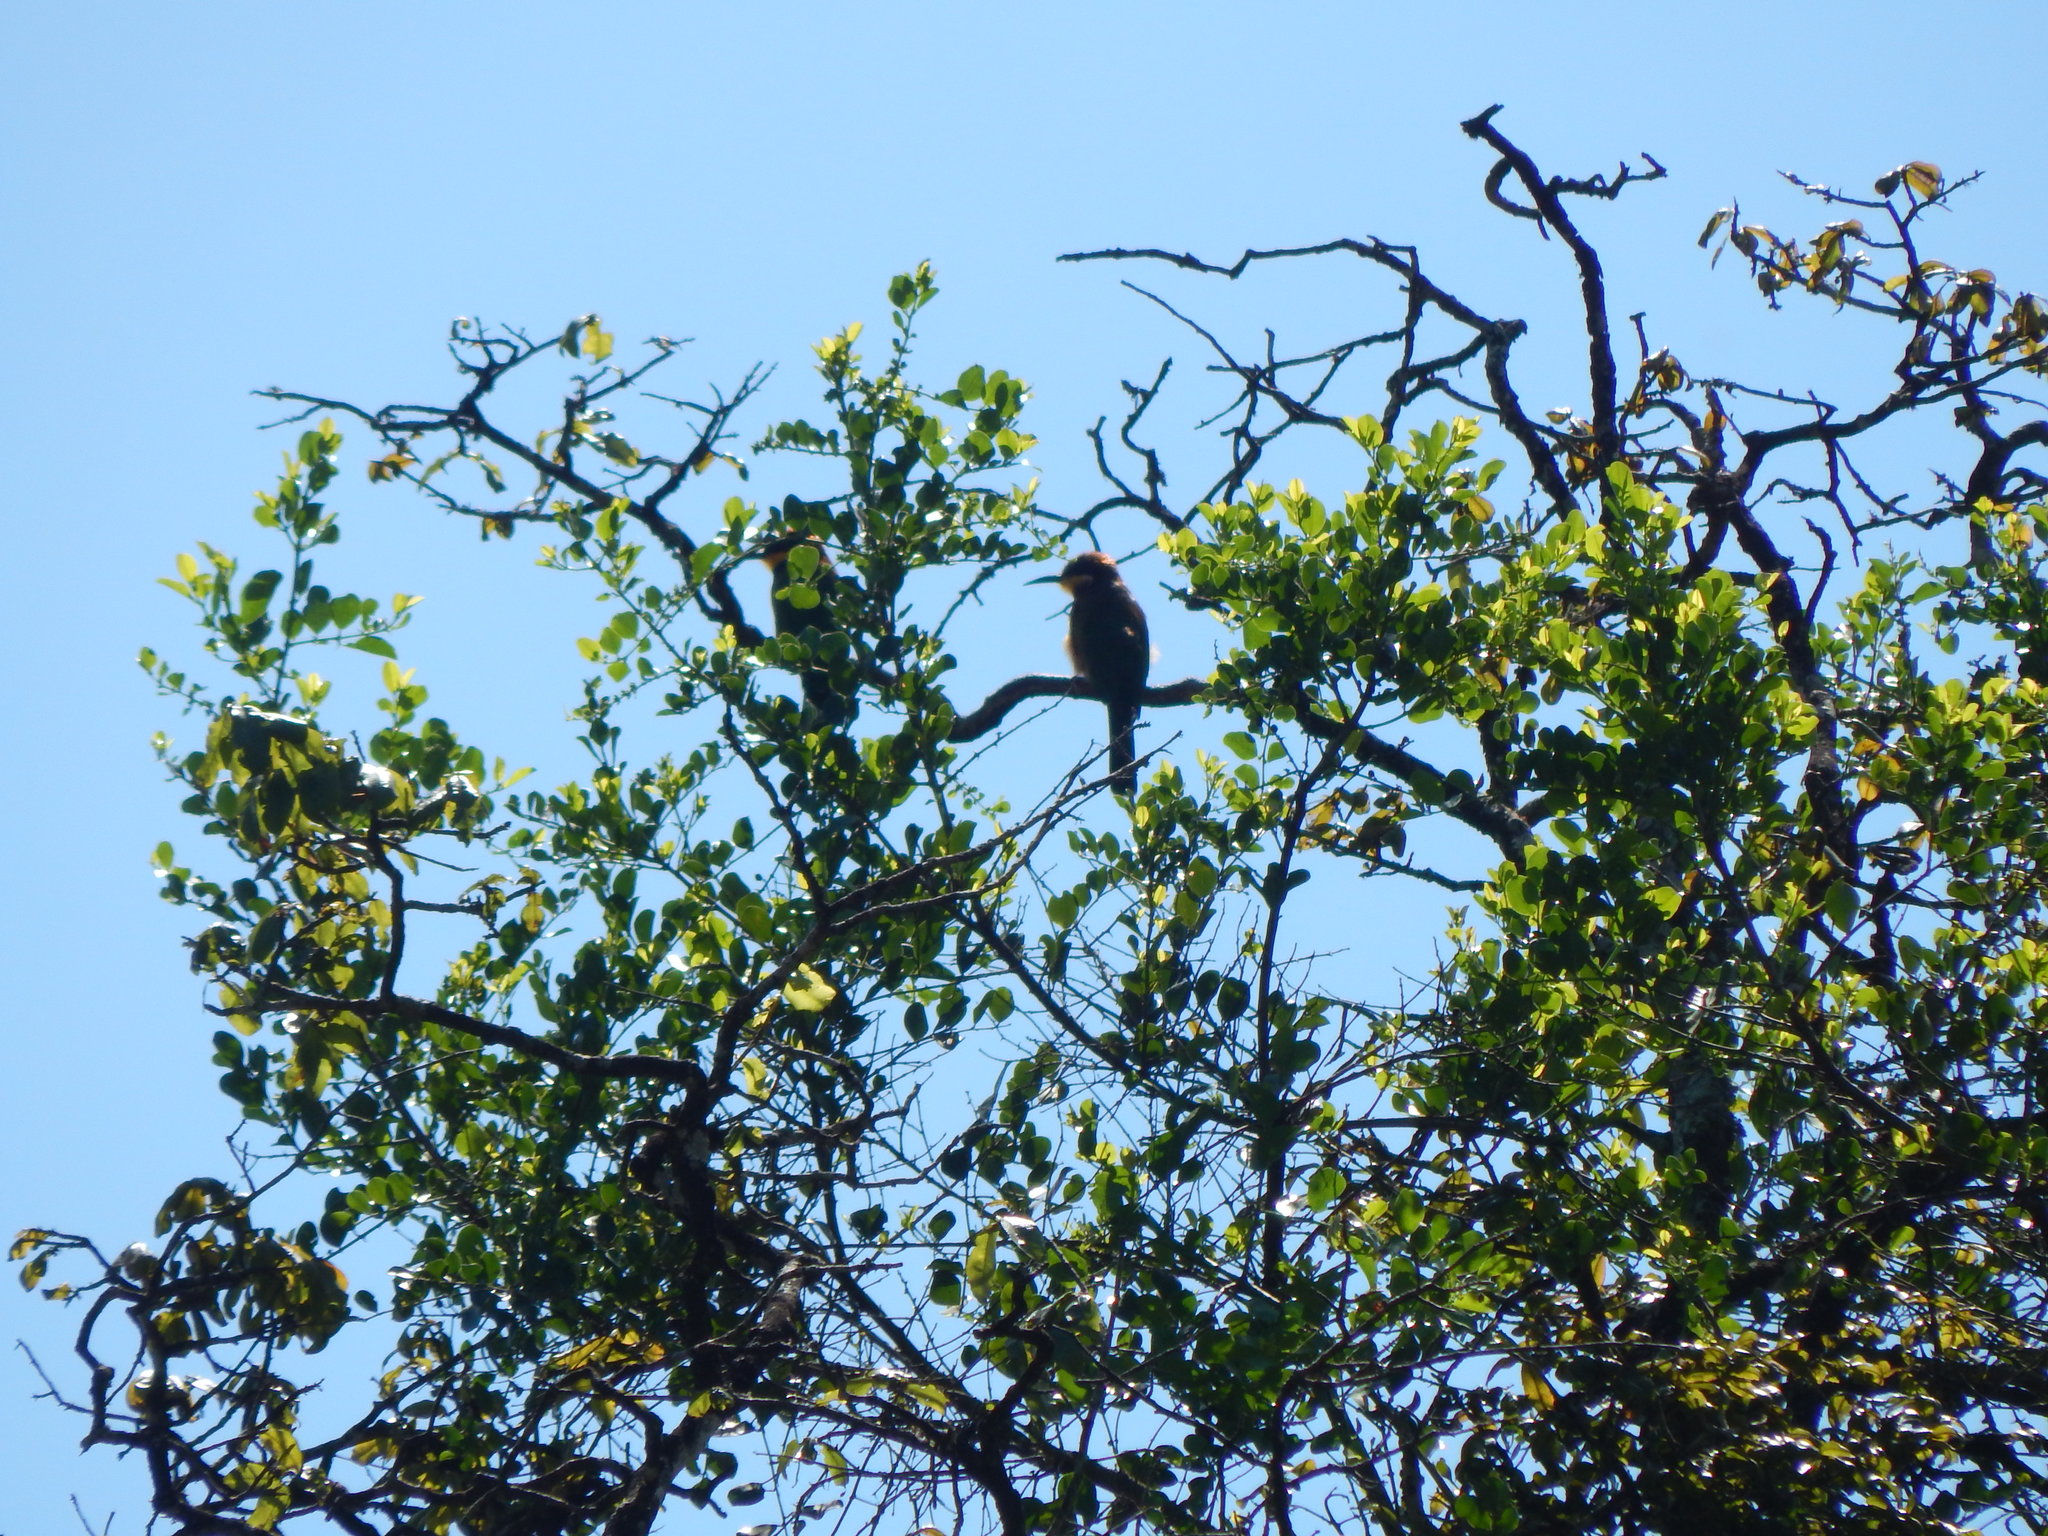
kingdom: Animalia
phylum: Chordata
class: Aves
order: Coraciiformes
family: Meropidae
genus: Merops
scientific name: Merops oreobates
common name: Cinnamon-chested bee-eater
